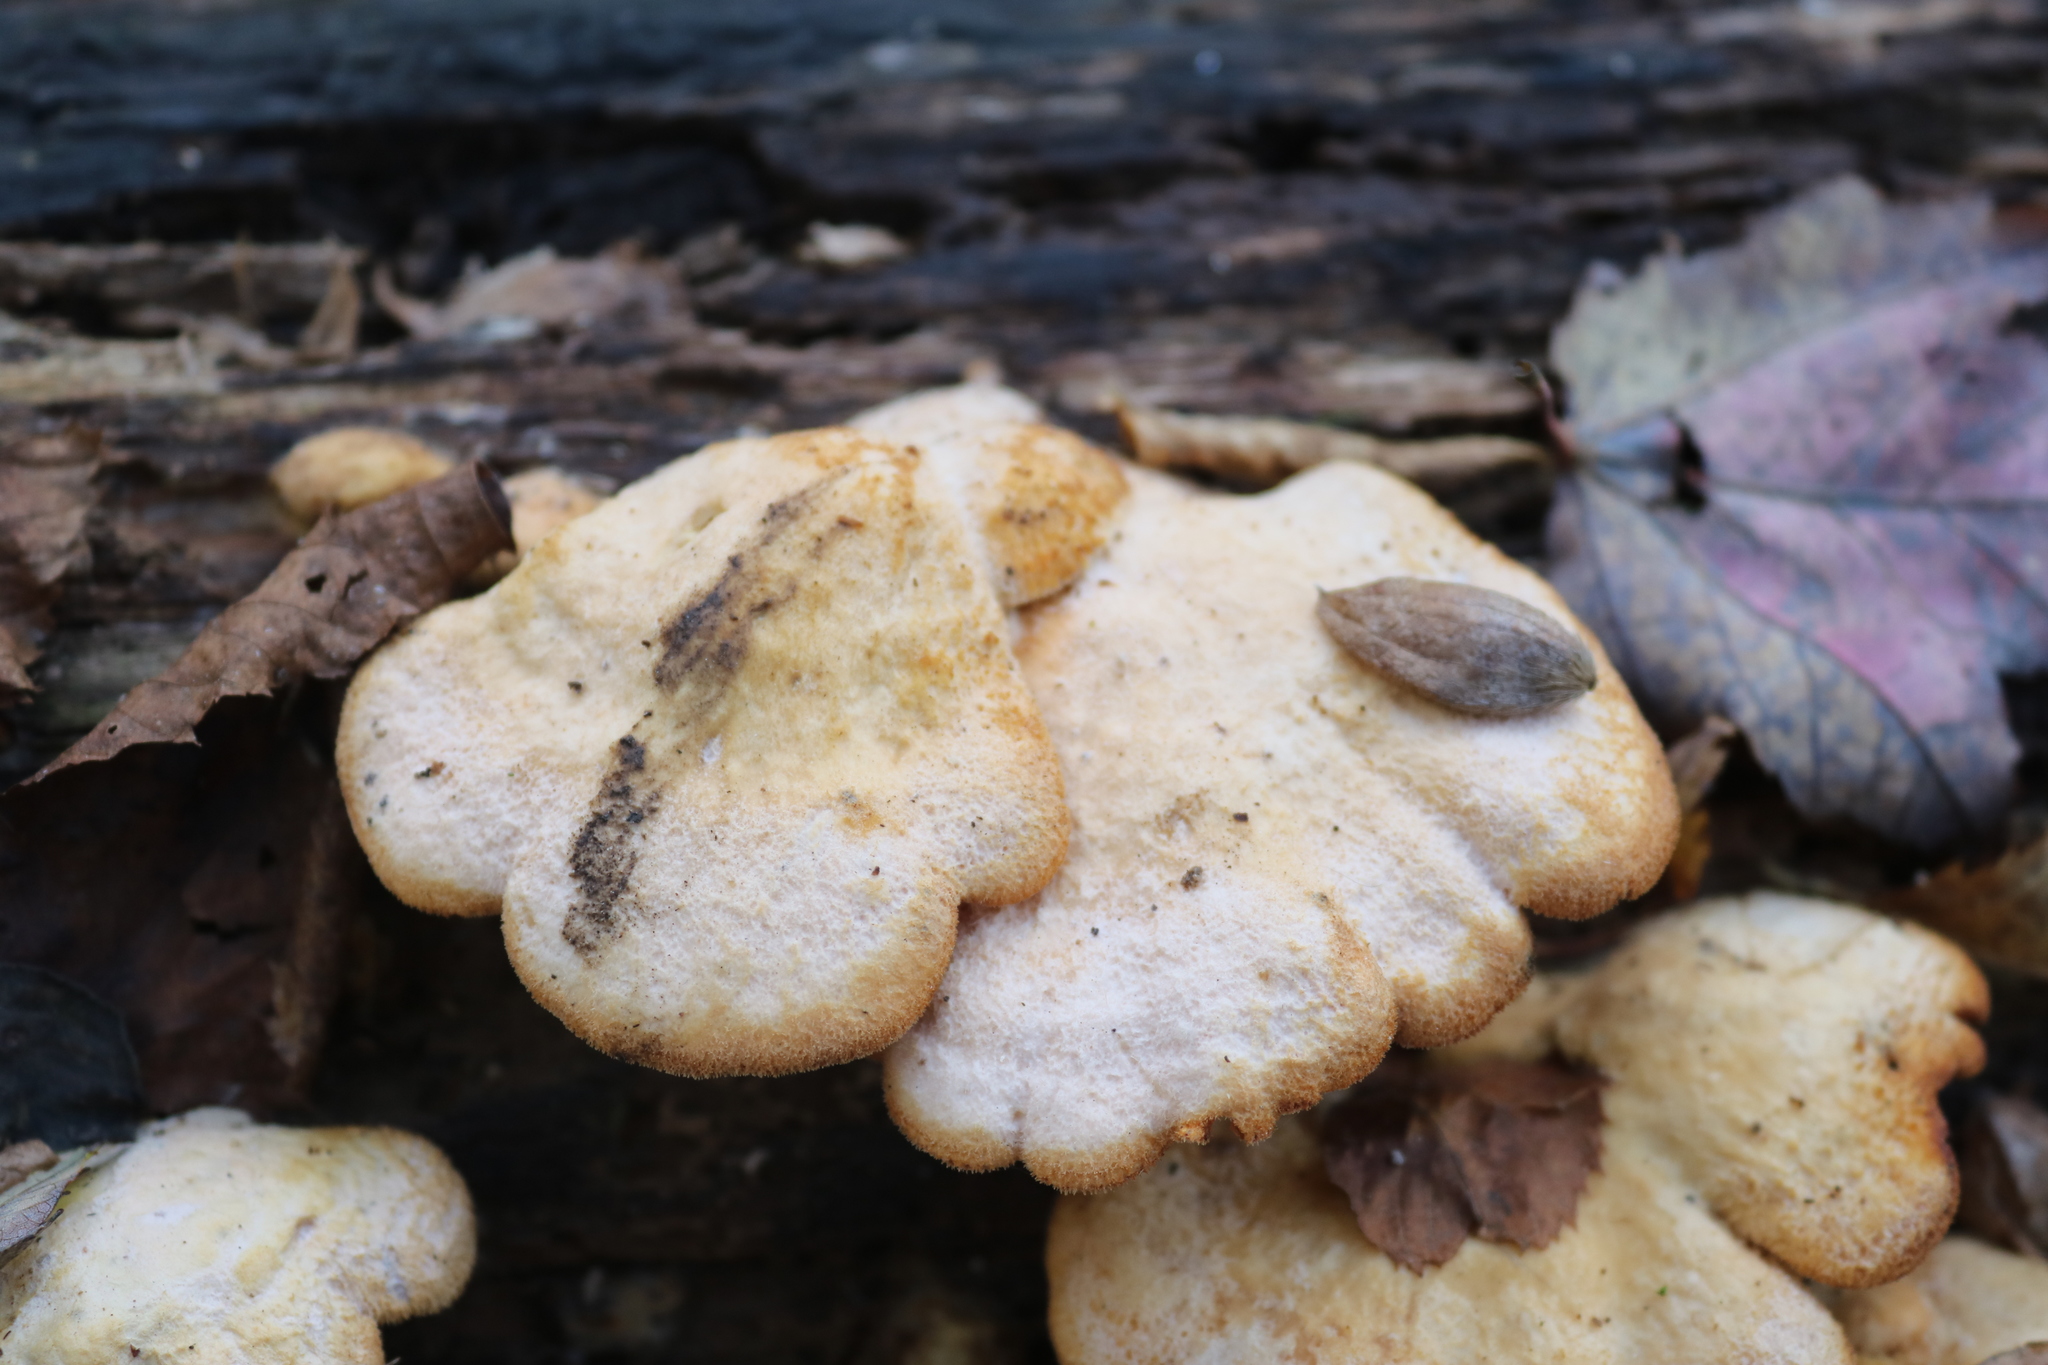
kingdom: Fungi
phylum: Basidiomycota
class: Agaricomycetes
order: Agaricales
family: Phyllotopsidaceae
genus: Phyllotopsis
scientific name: Phyllotopsis nidulans
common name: Orange mock oyster
